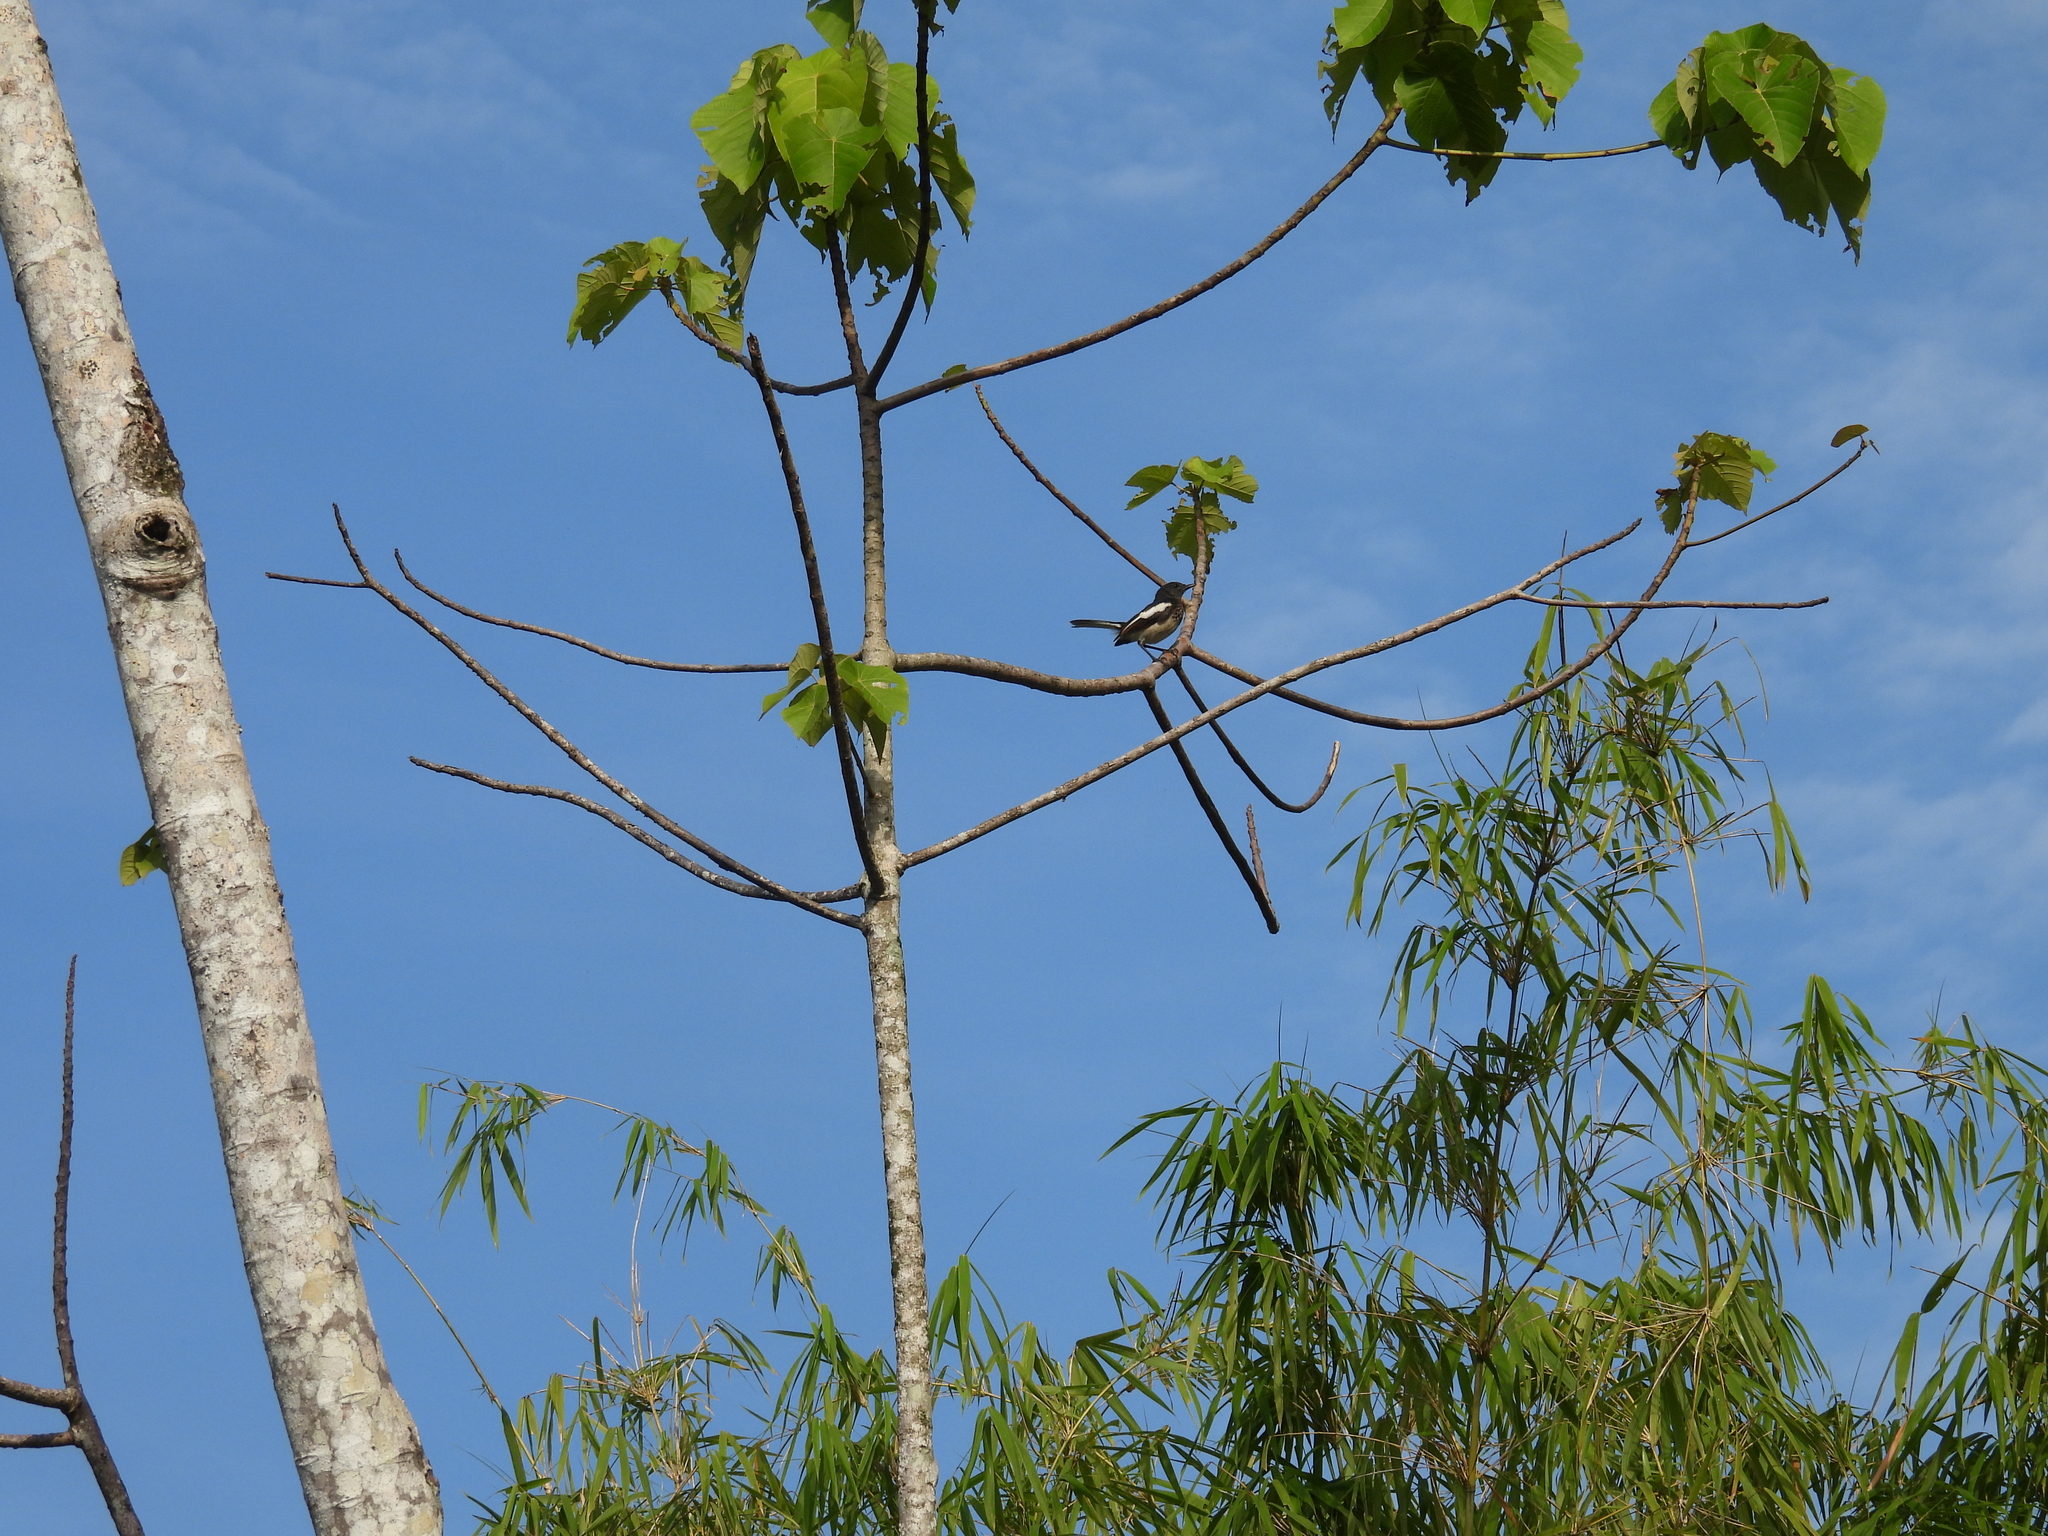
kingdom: Animalia
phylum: Chordata
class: Aves
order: Passeriformes
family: Muscicapidae
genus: Copsychus
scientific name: Copsychus saularis
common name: Oriental magpie-robin
